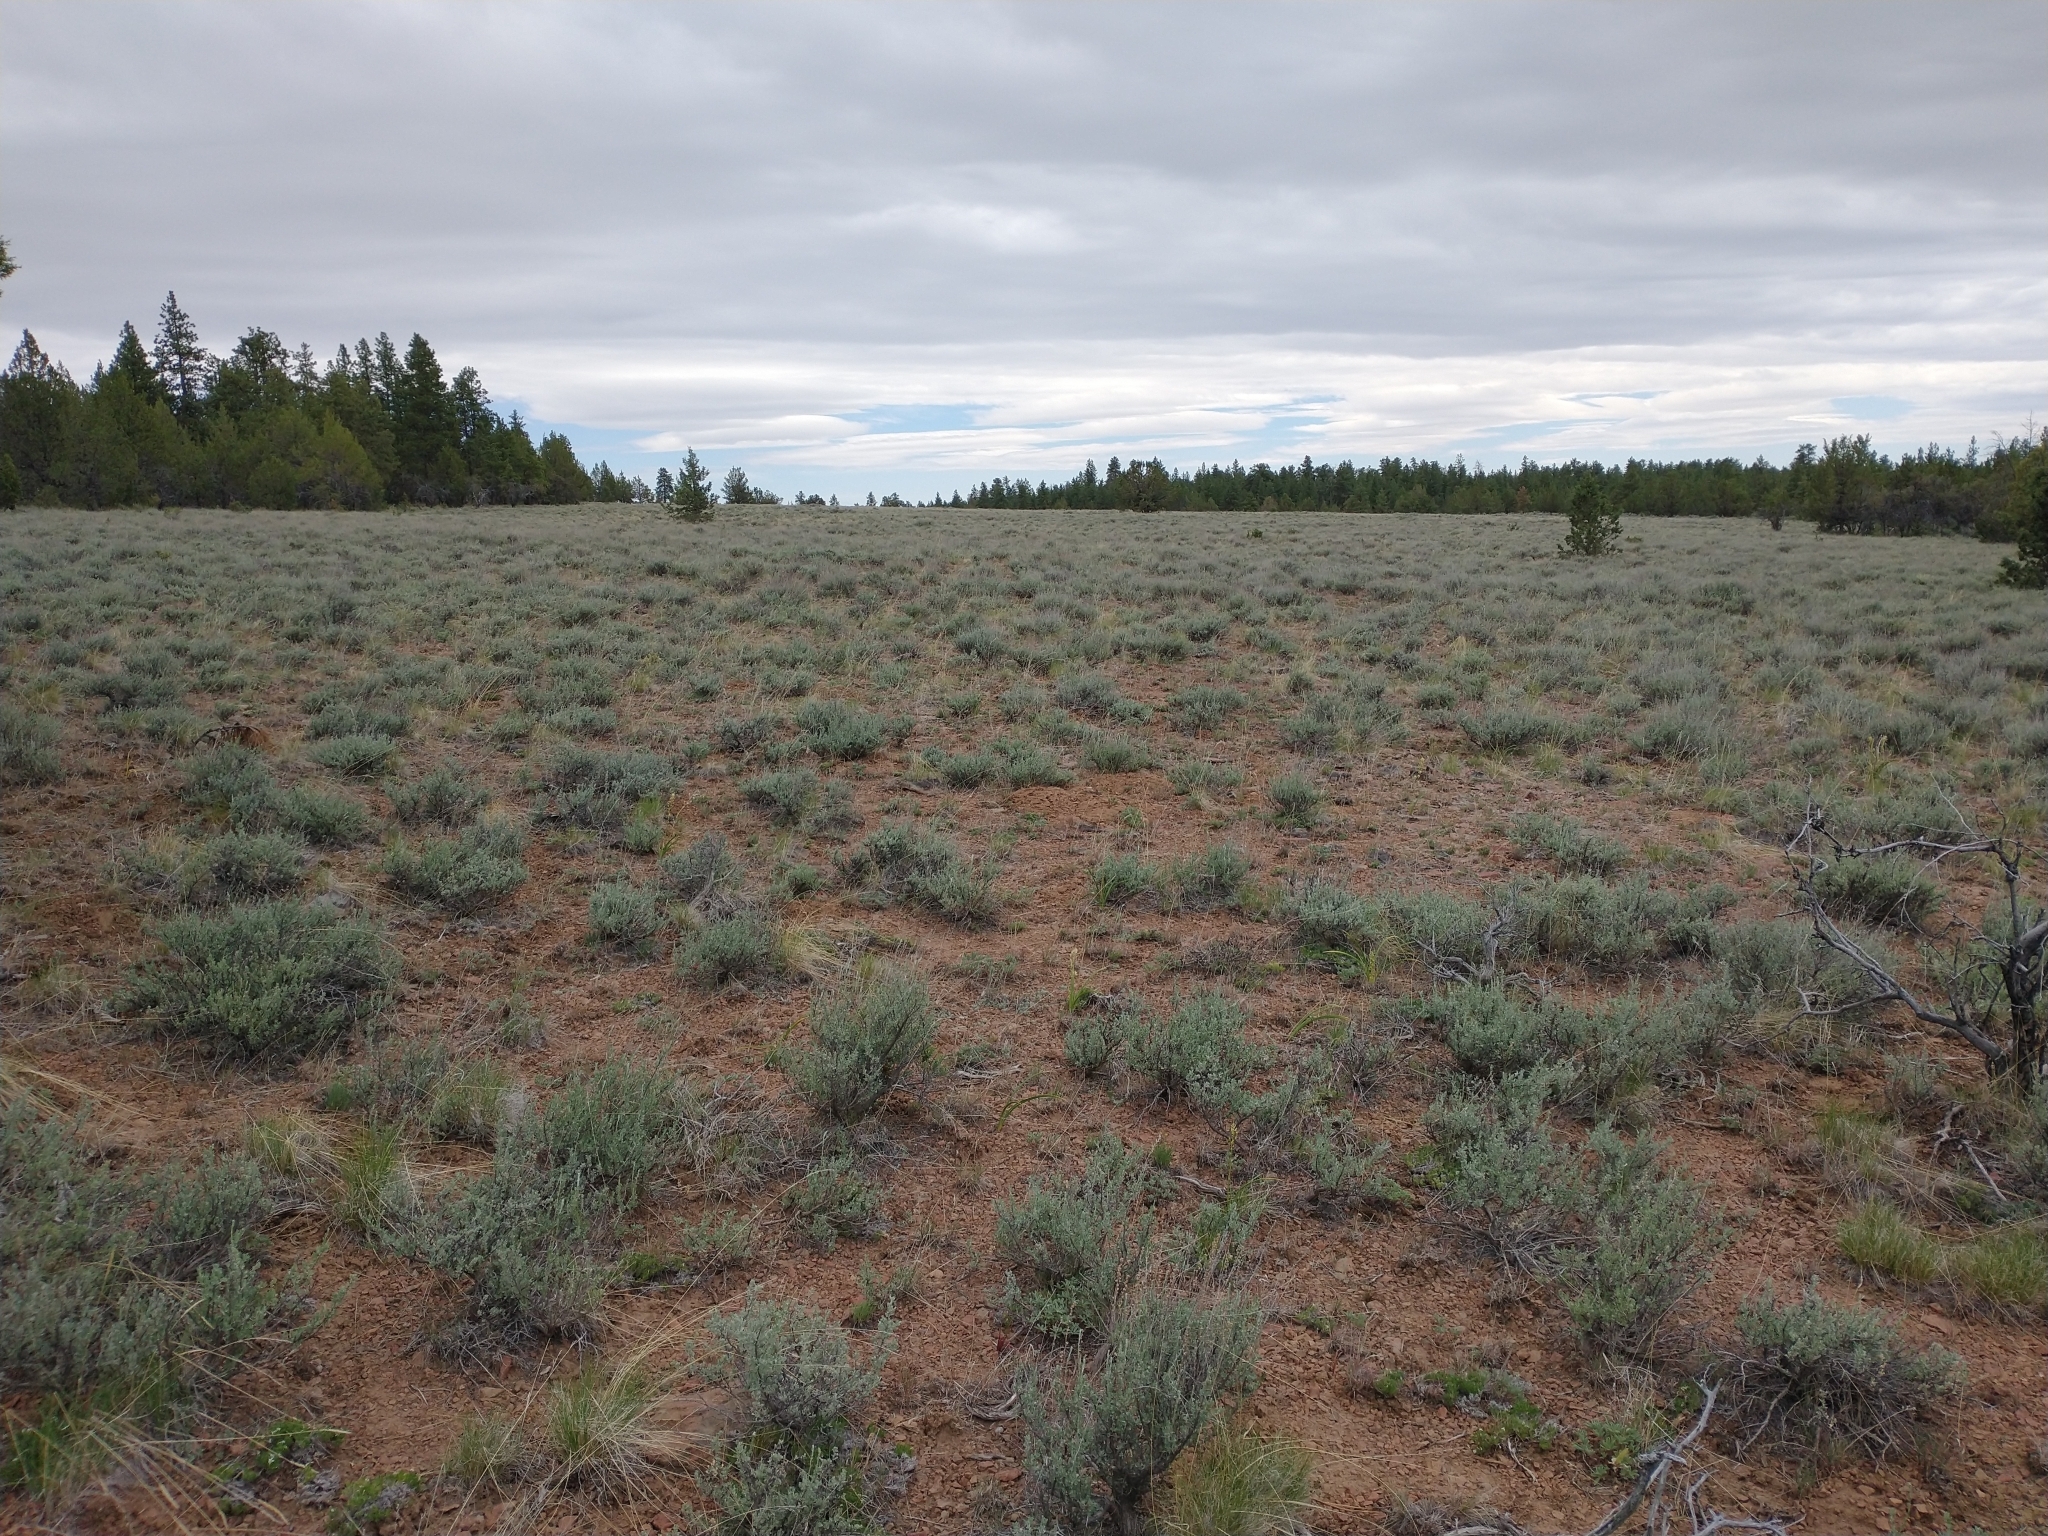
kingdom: Plantae
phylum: Tracheophyta
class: Magnoliopsida
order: Asterales
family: Asteraceae
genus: Artemisia
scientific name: Artemisia arbuscula
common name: Sagebrush
